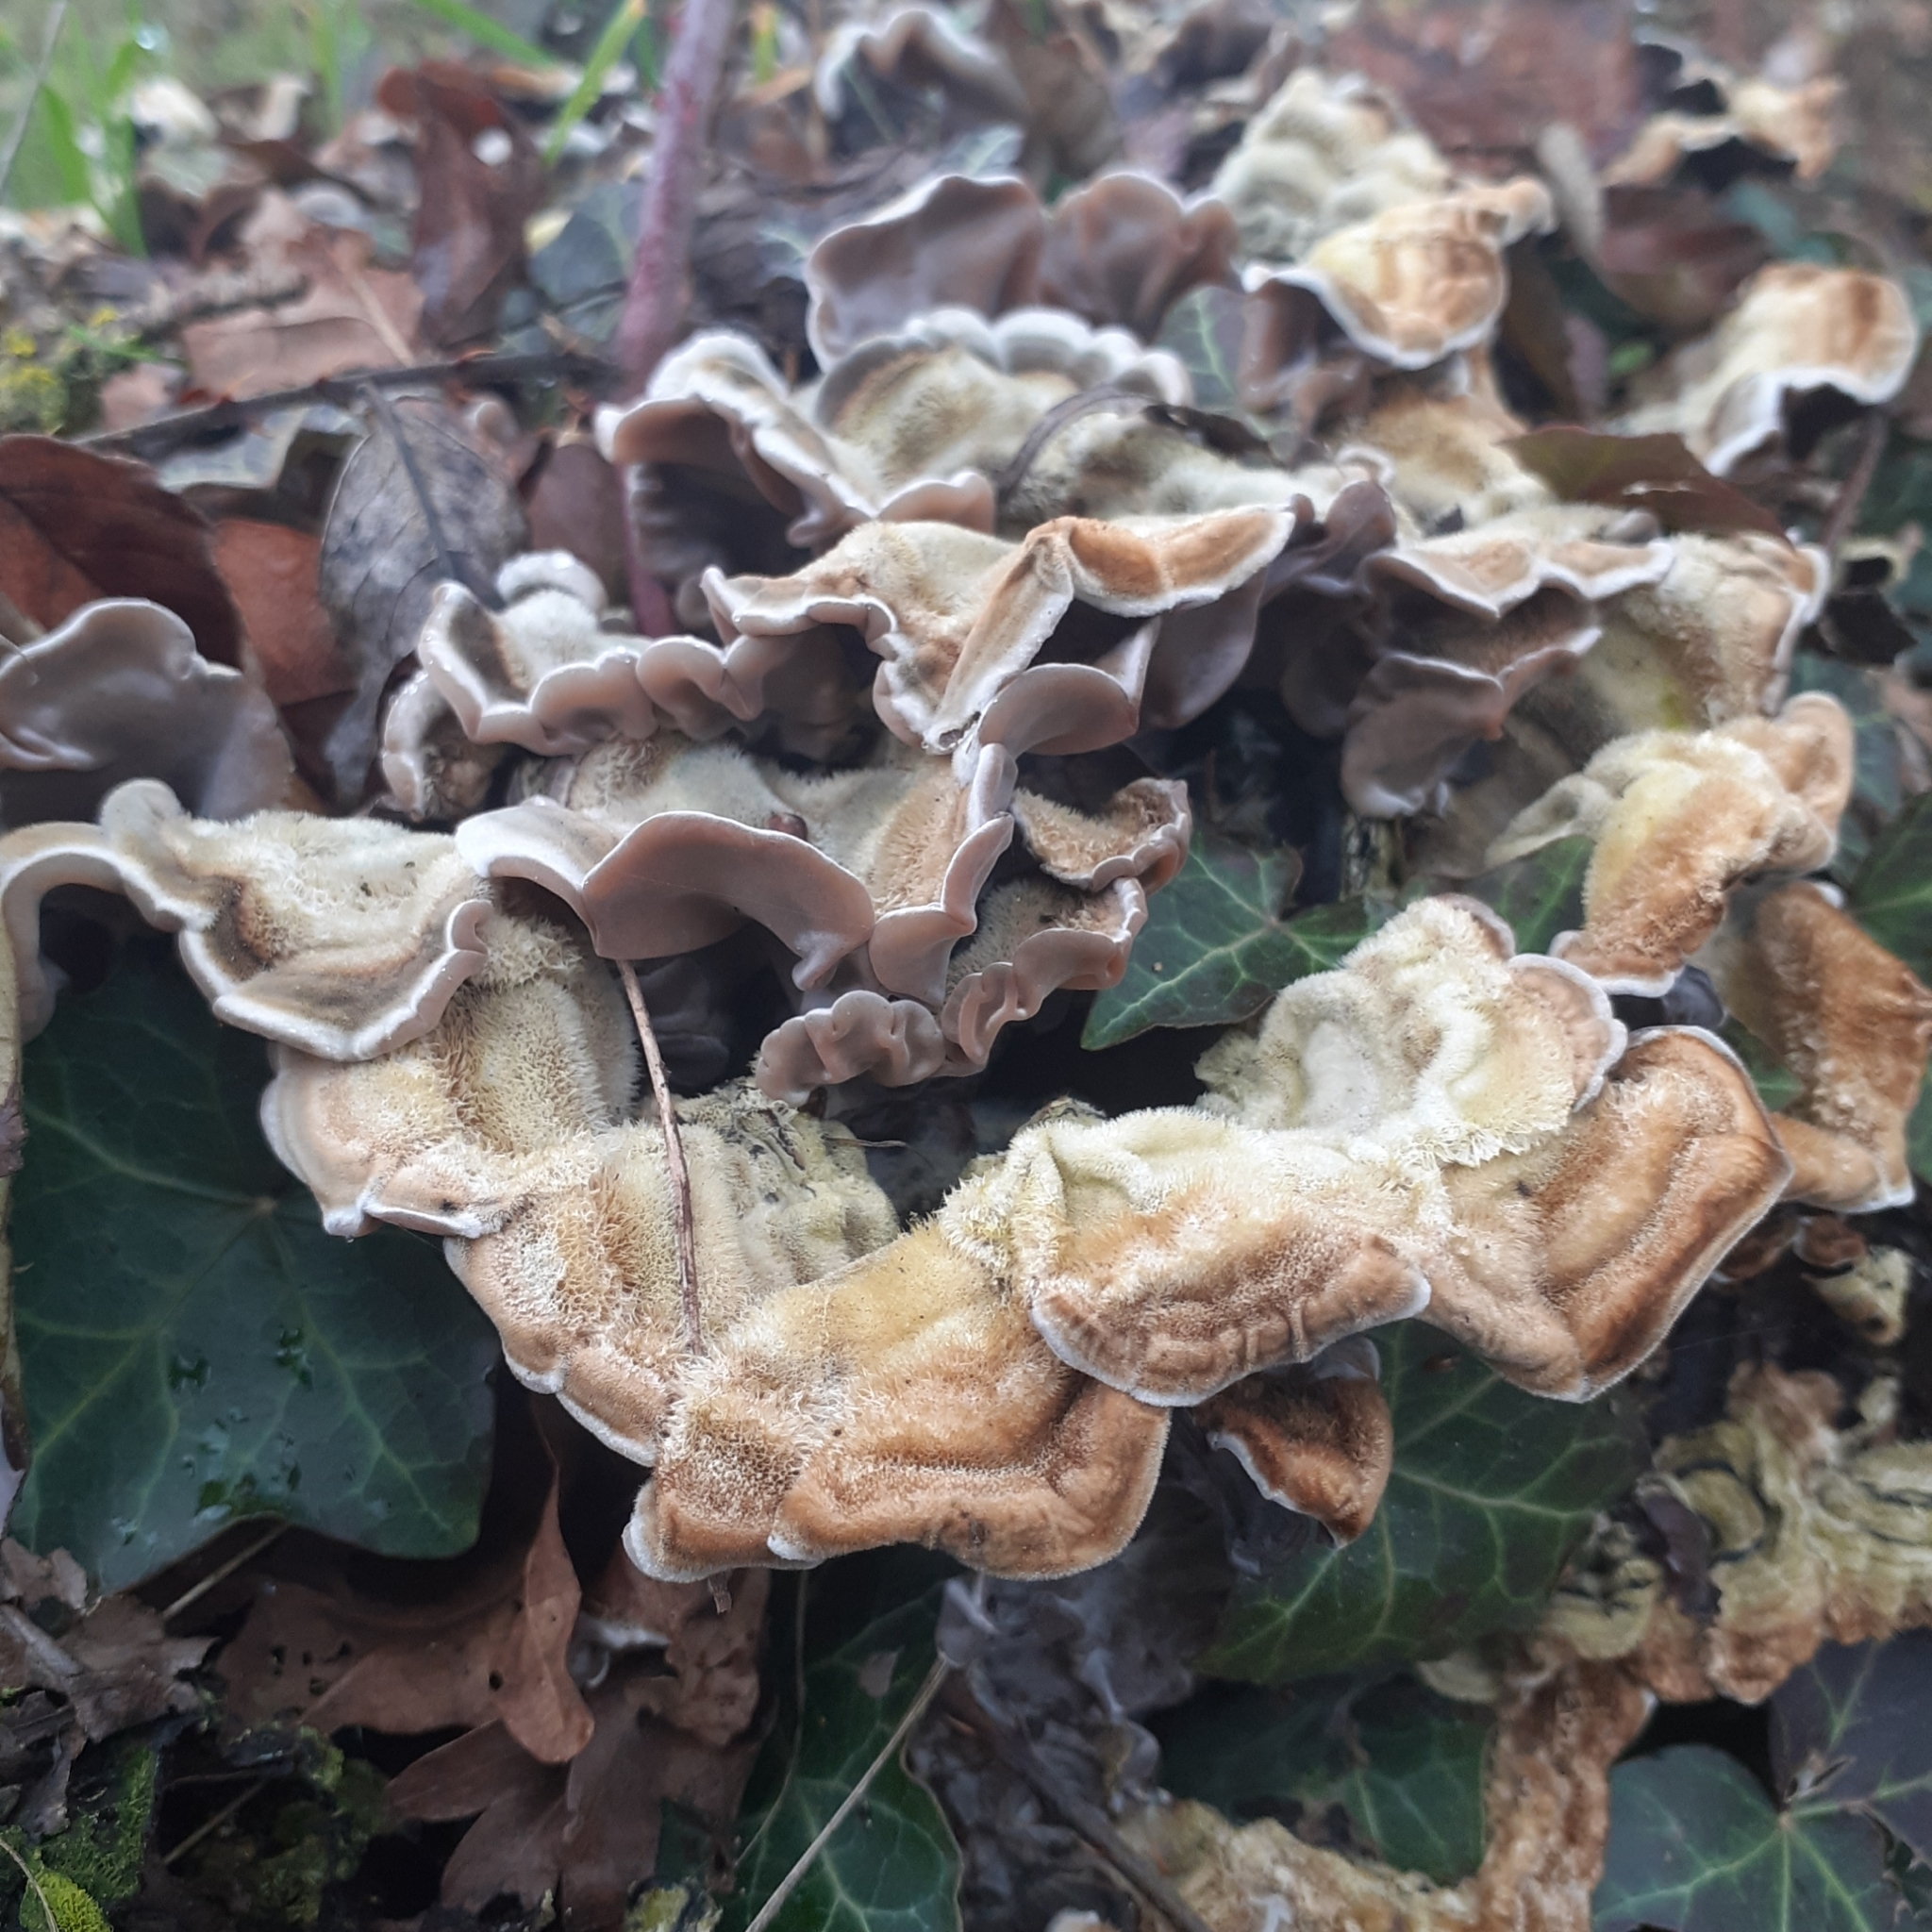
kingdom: Fungi
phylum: Basidiomycota
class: Agaricomycetes
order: Auriculariales
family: Auriculariaceae
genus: Auricularia
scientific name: Auricularia mesenterica
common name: Tripe fungus
